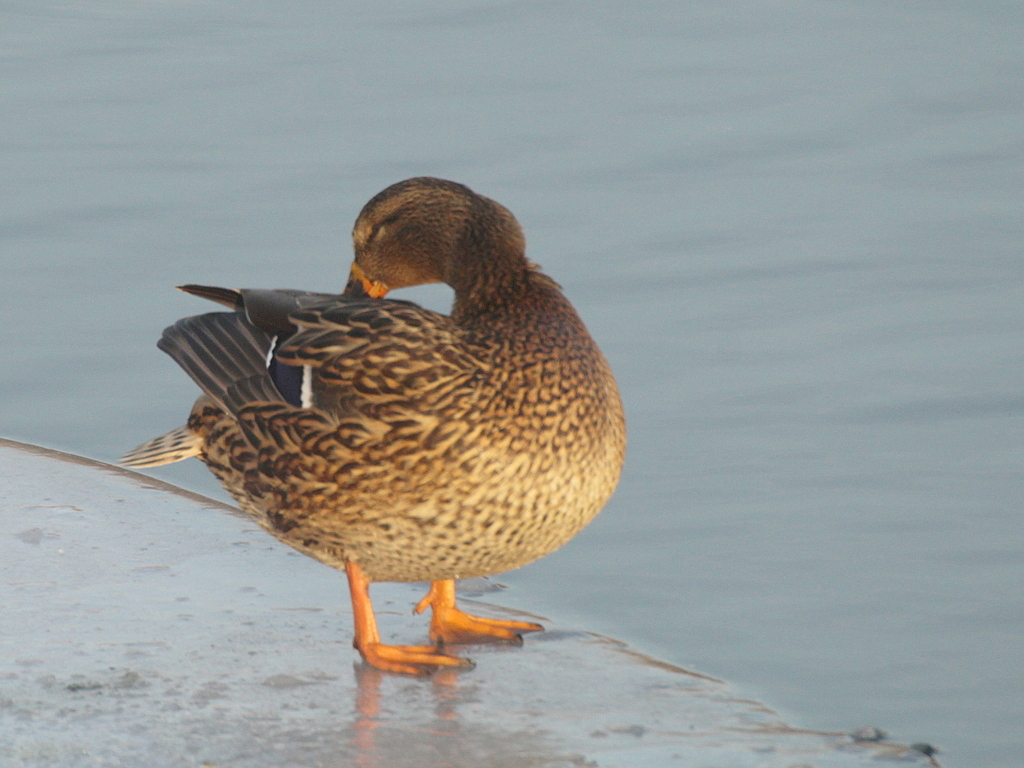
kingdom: Animalia
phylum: Chordata
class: Aves
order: Anseriformes
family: Anatidae
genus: Anas
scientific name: Anas platyrhynchos
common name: Mallard
